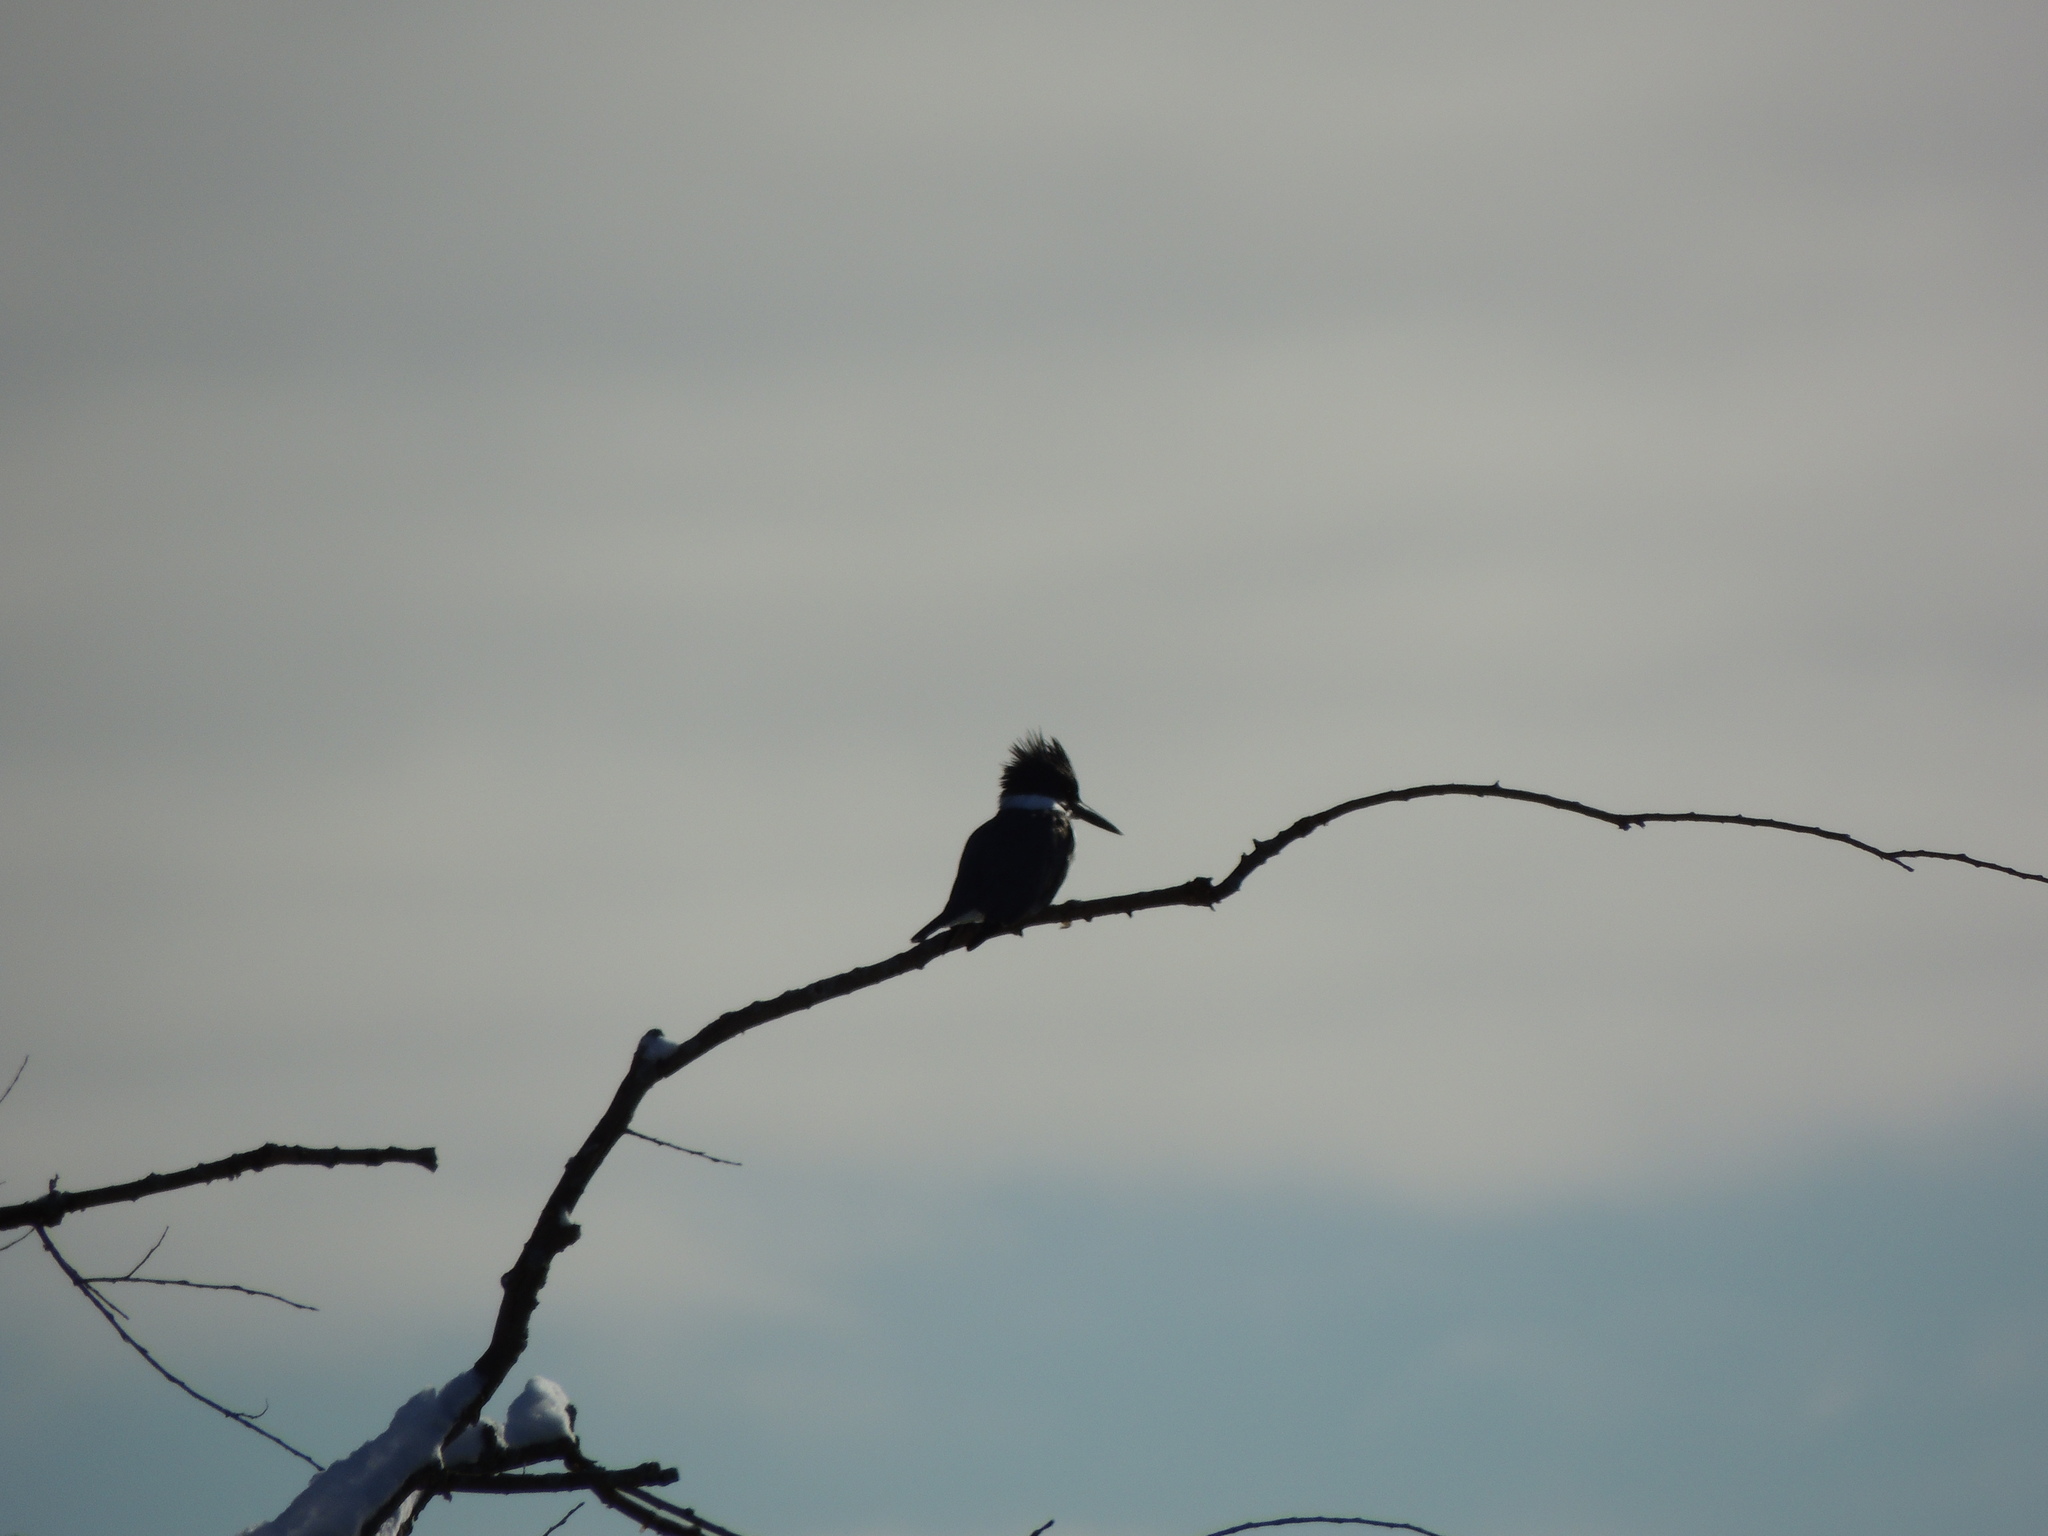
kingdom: Animalia
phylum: Chordata
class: Aves
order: Coraciiformes
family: Alcedinidae
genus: Megaceryle
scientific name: Megaceryle alcyon
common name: Belted kingfisher
